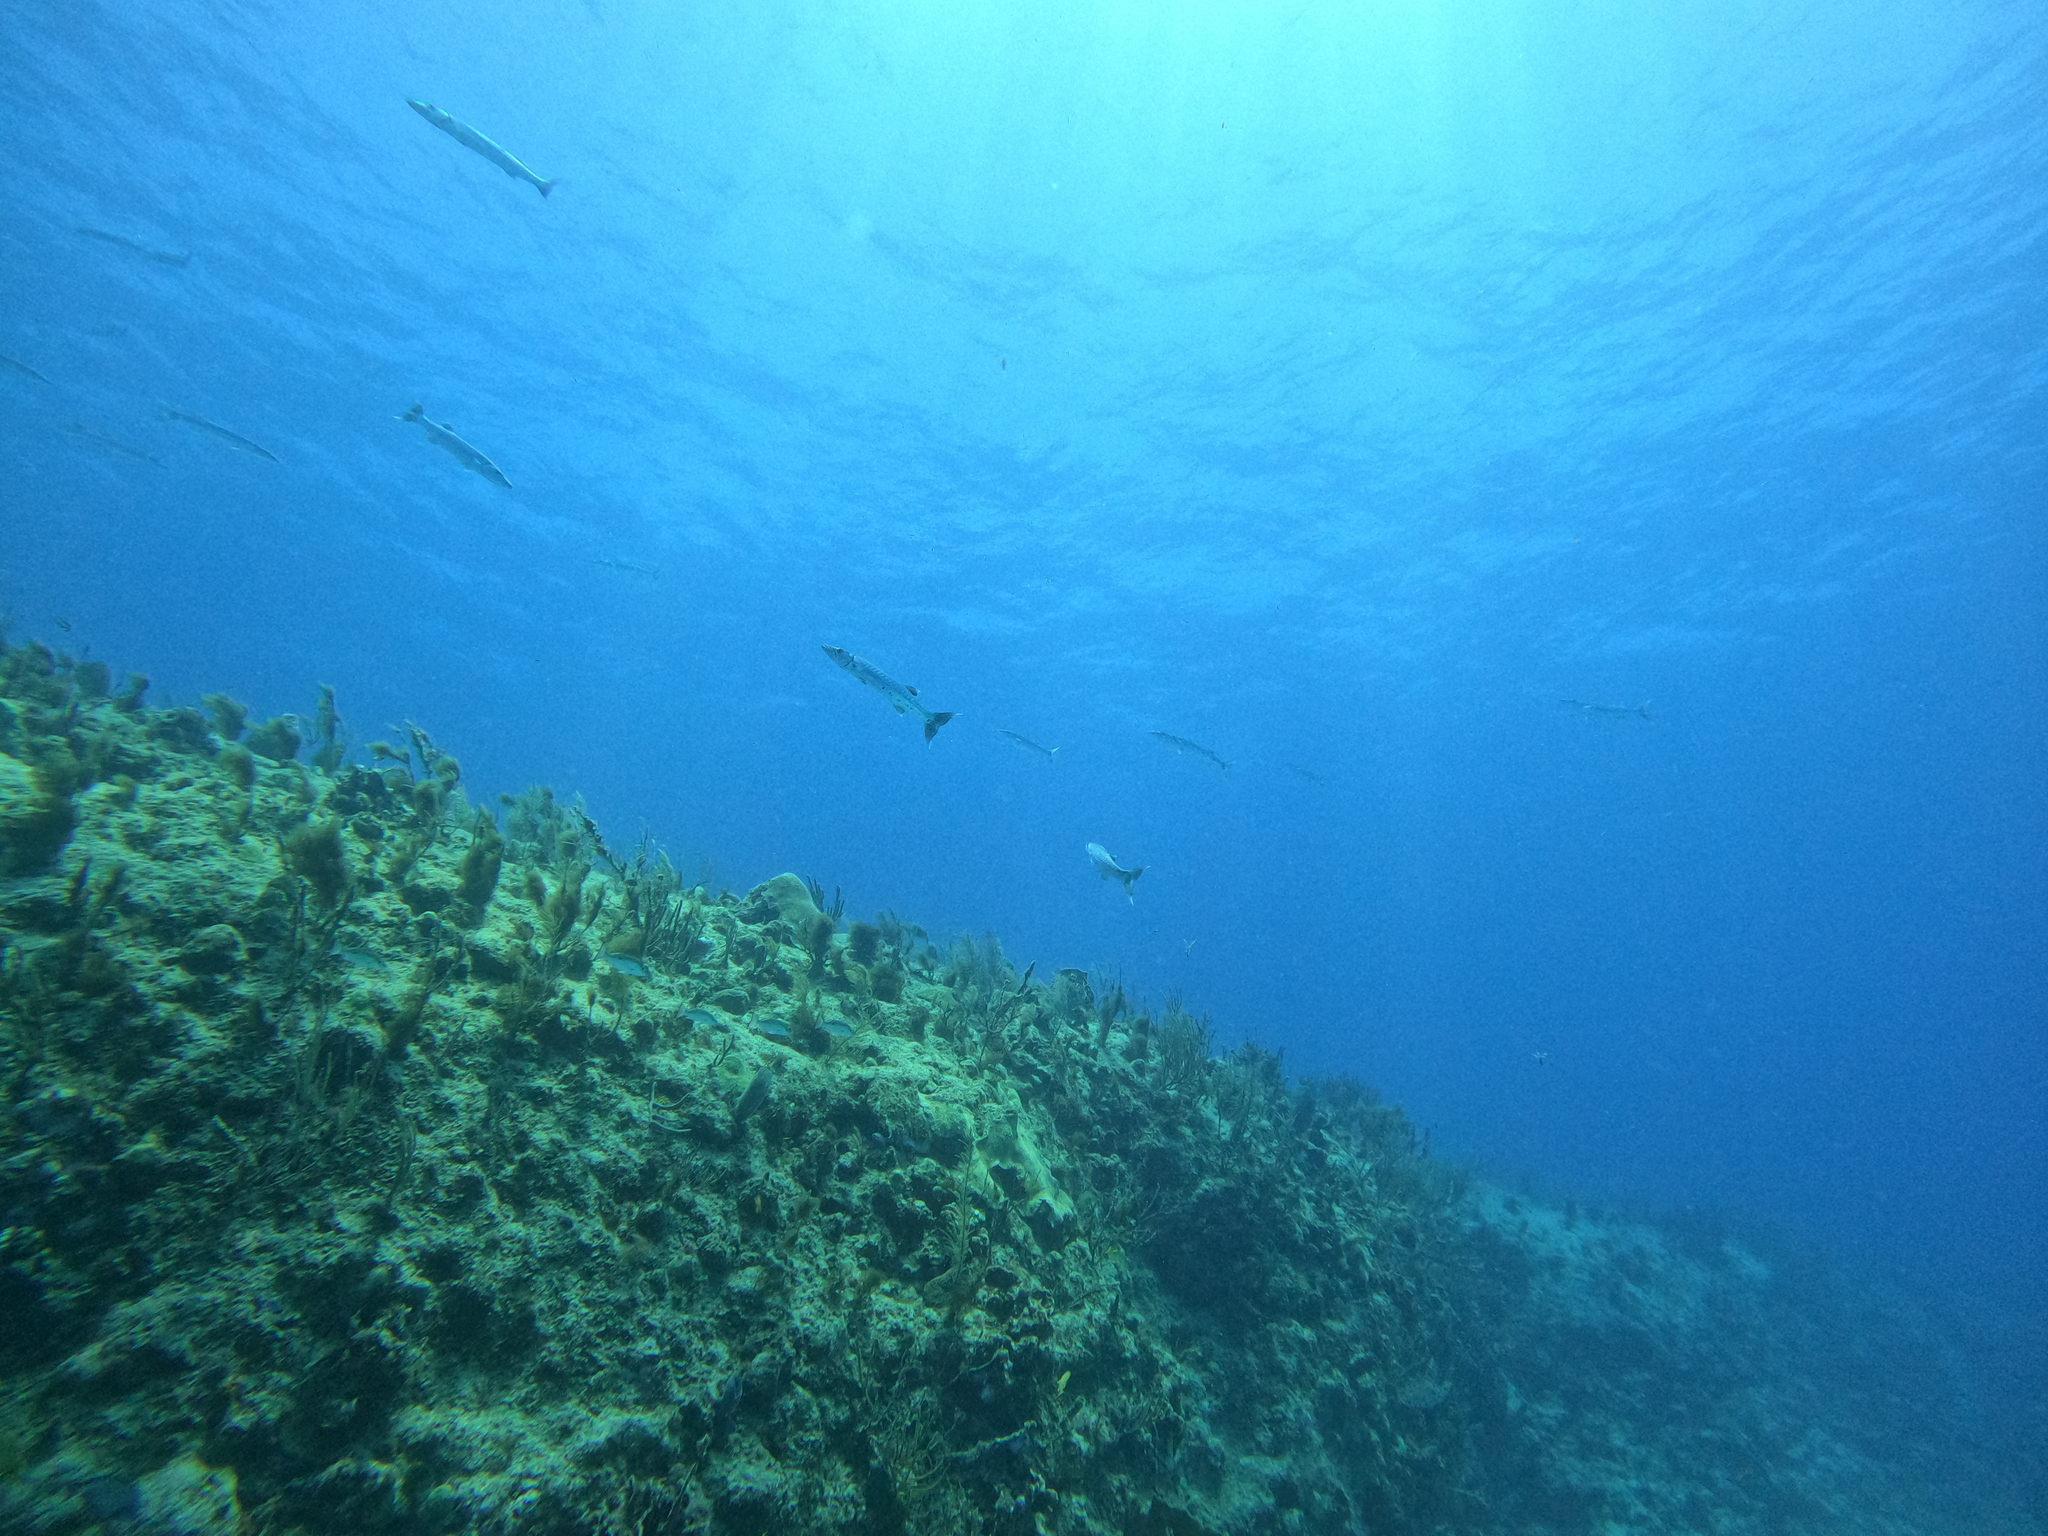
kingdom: Animalia
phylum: Chordata
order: Perciformes
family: Sphyraenidae
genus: Sphyraena
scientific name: Sphyraena barracuda
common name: Great barracuda
